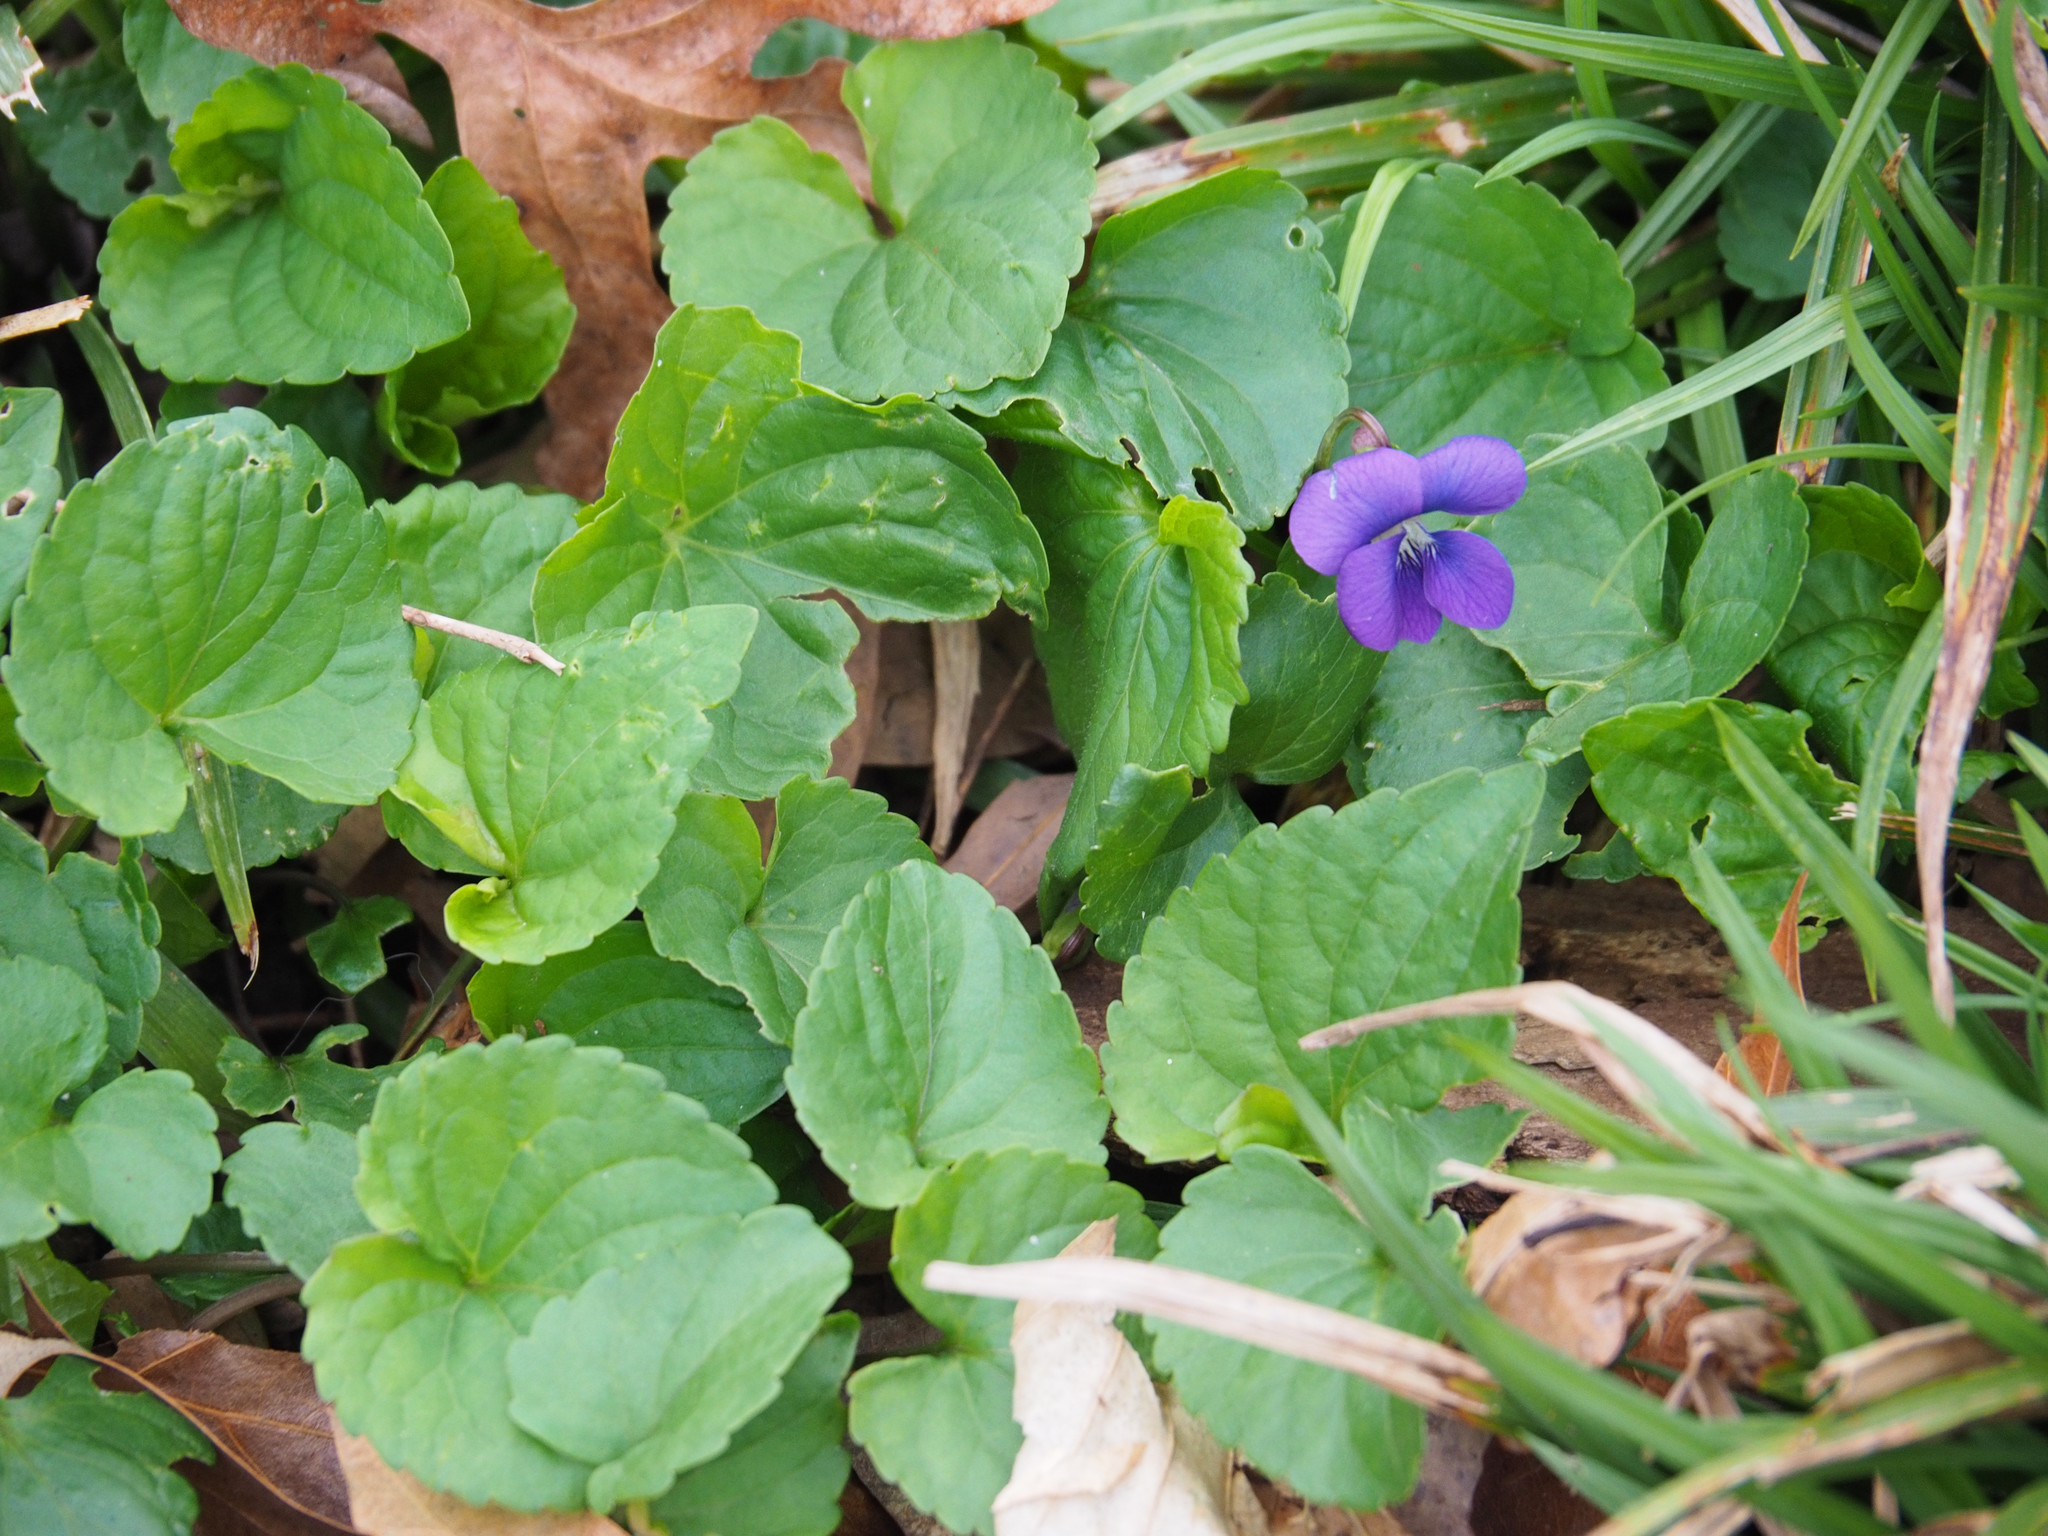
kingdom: Plantae
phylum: Tracheophyta
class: Magnoliopsida
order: Malpighiales
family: Violaceae
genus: Viola
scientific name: Viola sororia
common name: Dooryard violet
